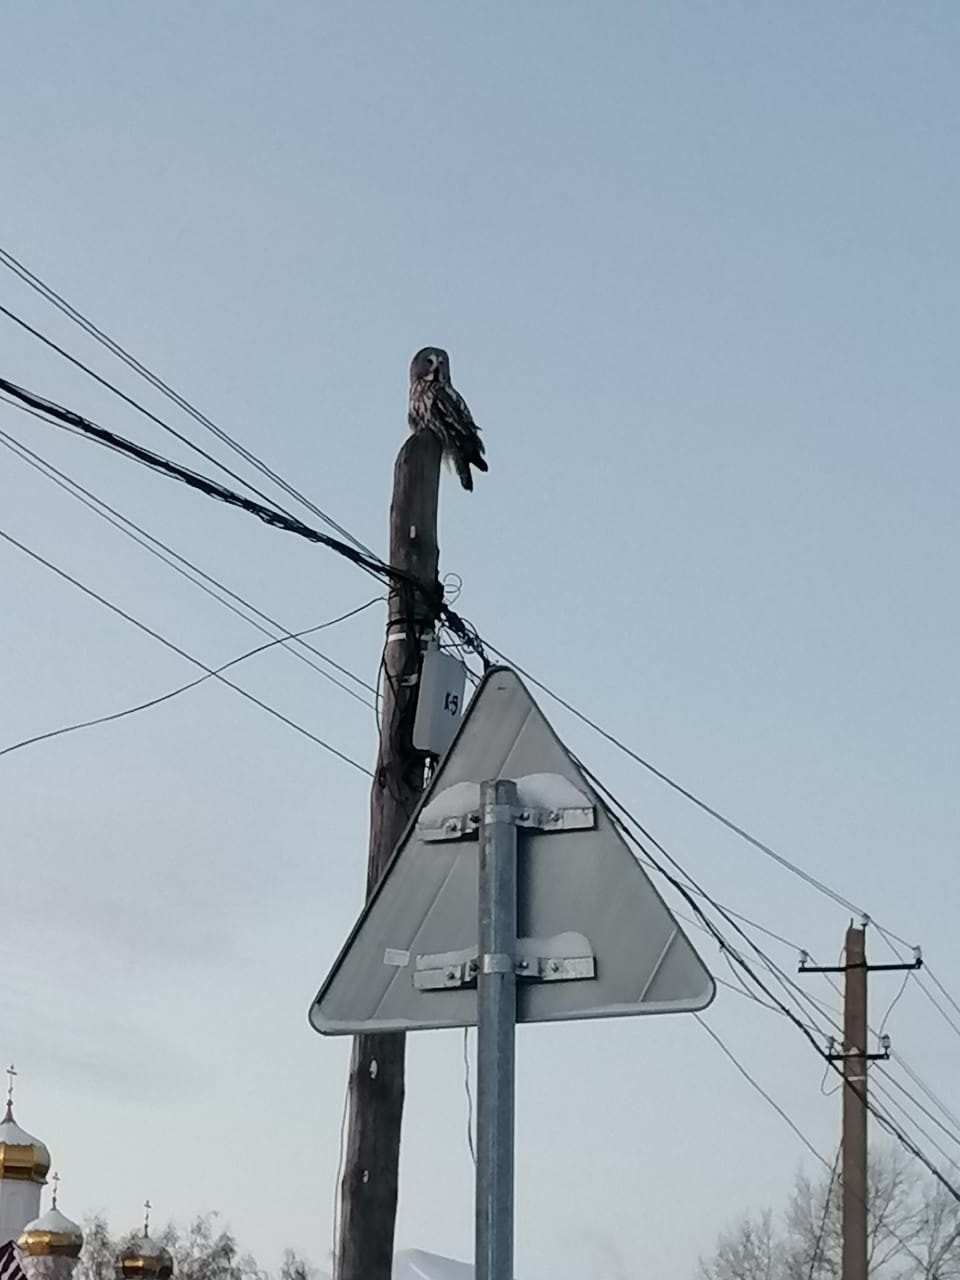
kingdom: Animalia
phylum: Chordata
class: Aves
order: Strigiformes
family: Strigidae
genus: Strix
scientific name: Strix nebulosa
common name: Great grey owl
